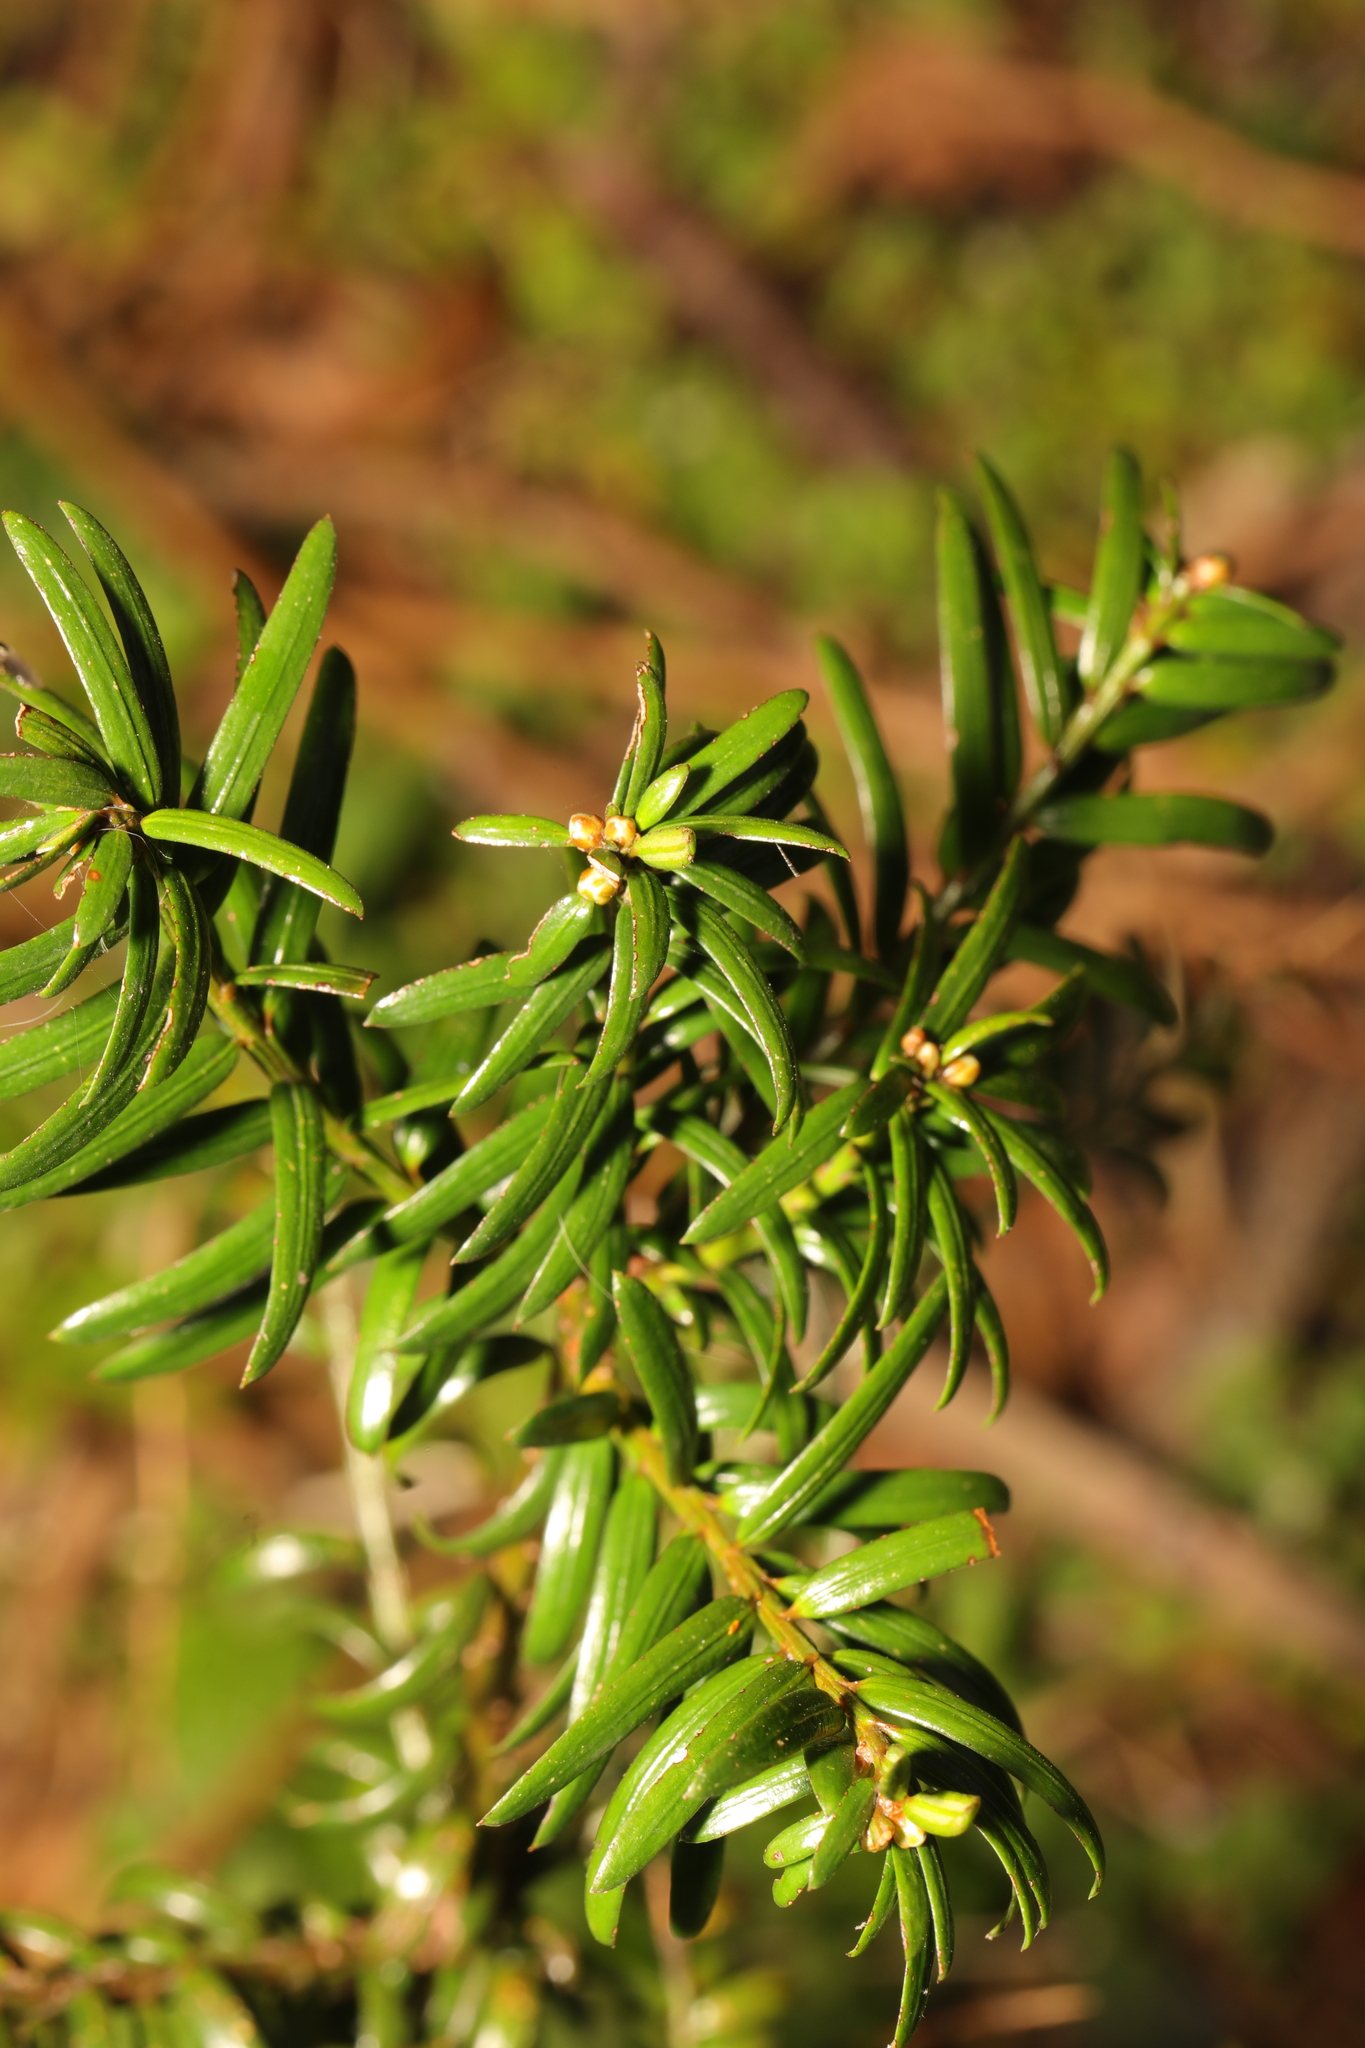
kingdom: Plantae
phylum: Tracheophyta
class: Pinopsida
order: Pinales
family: Taxaceae
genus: Taxus
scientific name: Taxus baccata
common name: Yew
